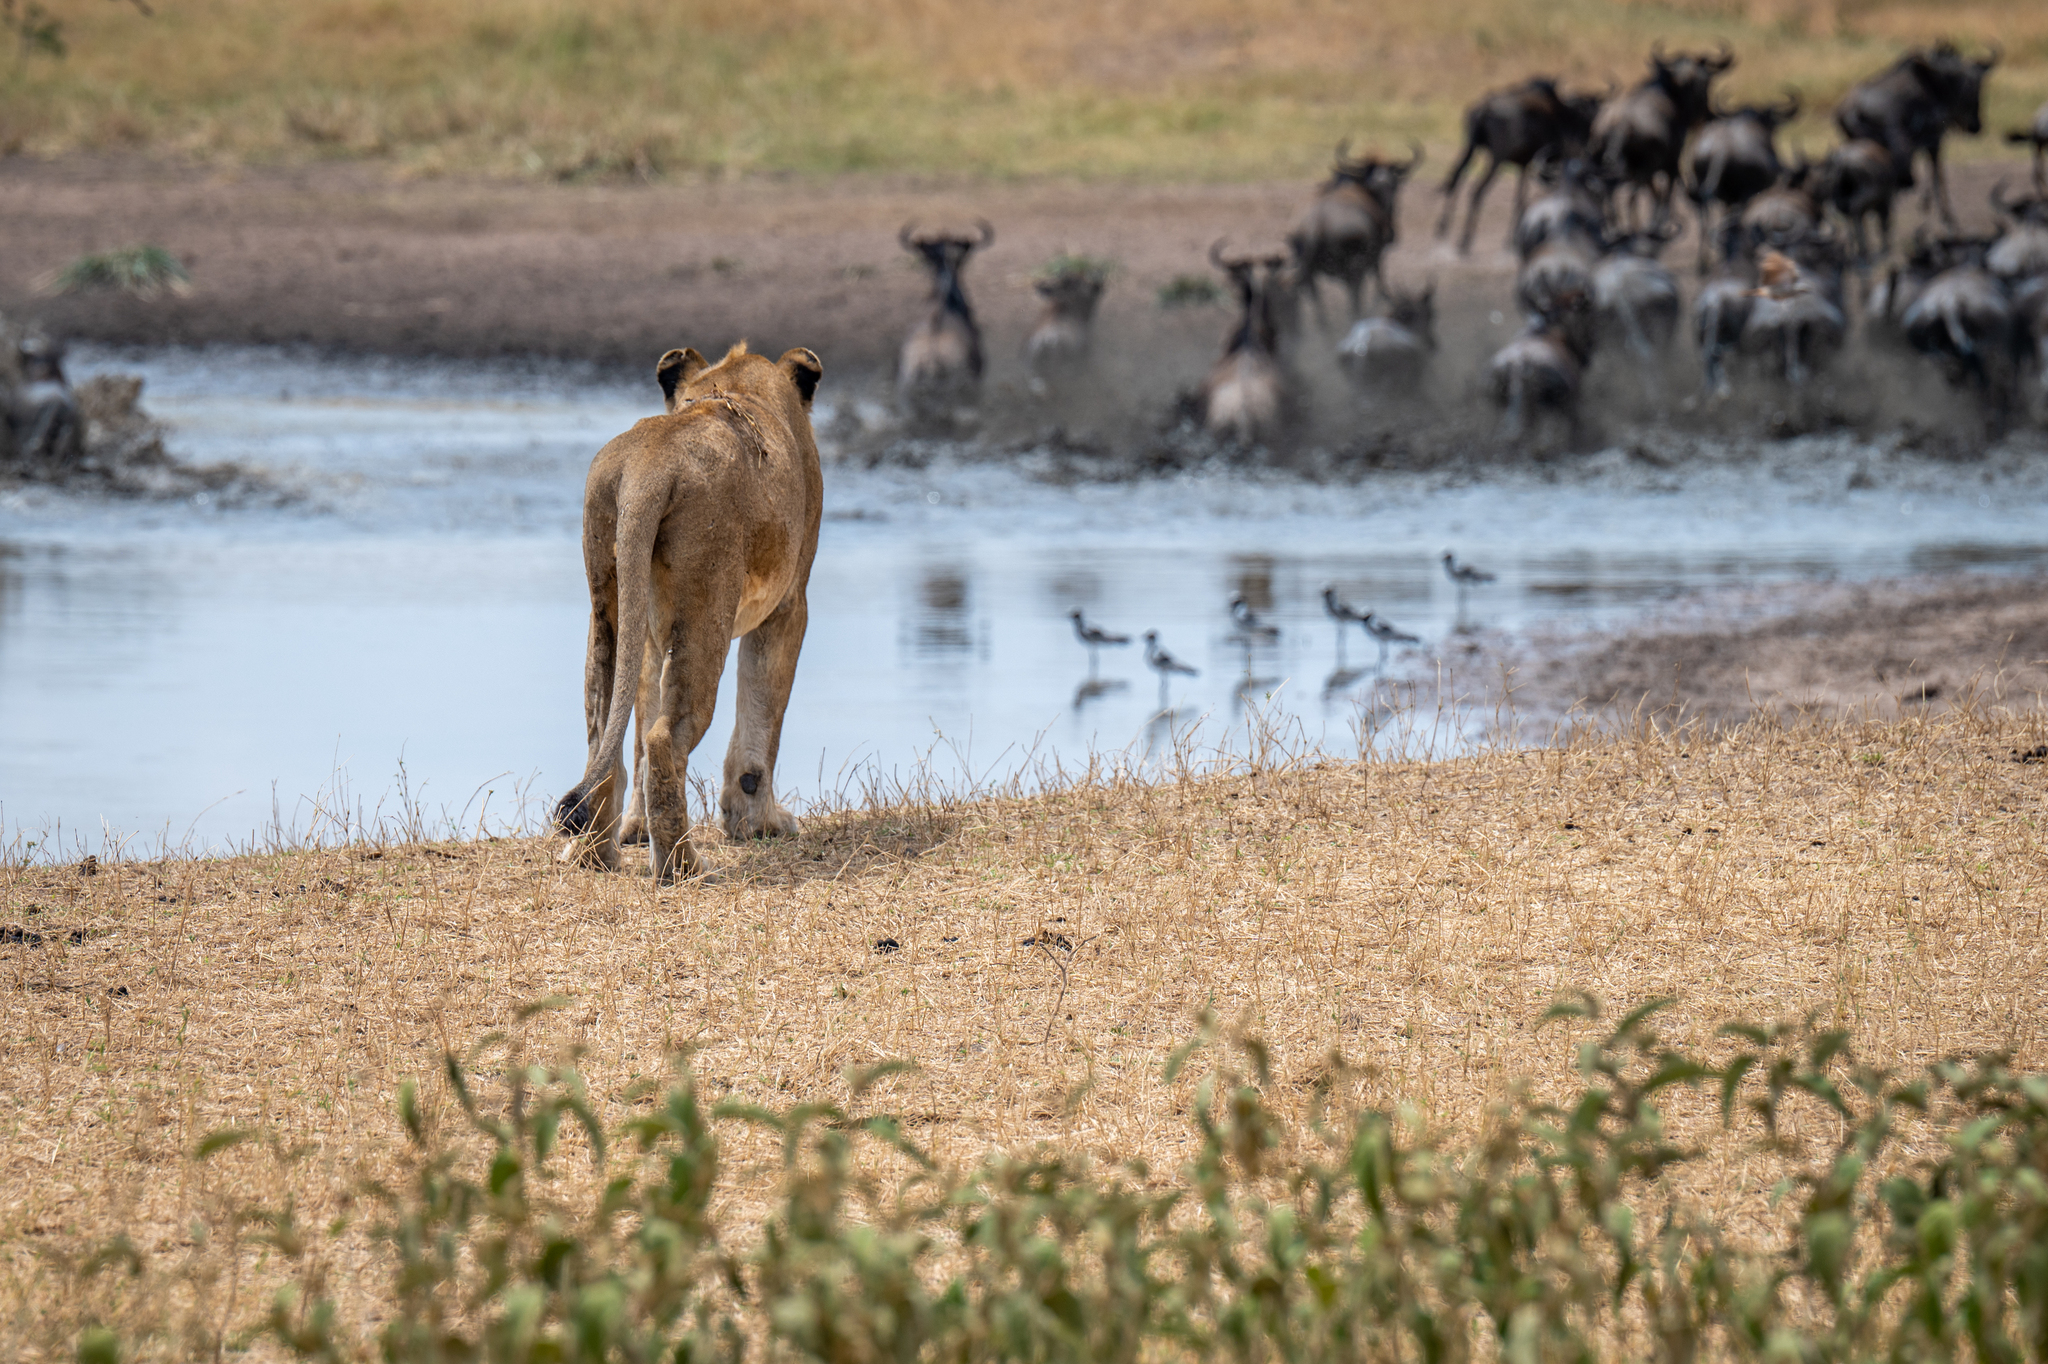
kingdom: Animalia
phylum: Chordata
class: Mammalia
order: Carnivora
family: Felidae
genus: Panthera
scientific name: Panthera leo
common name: Lion
